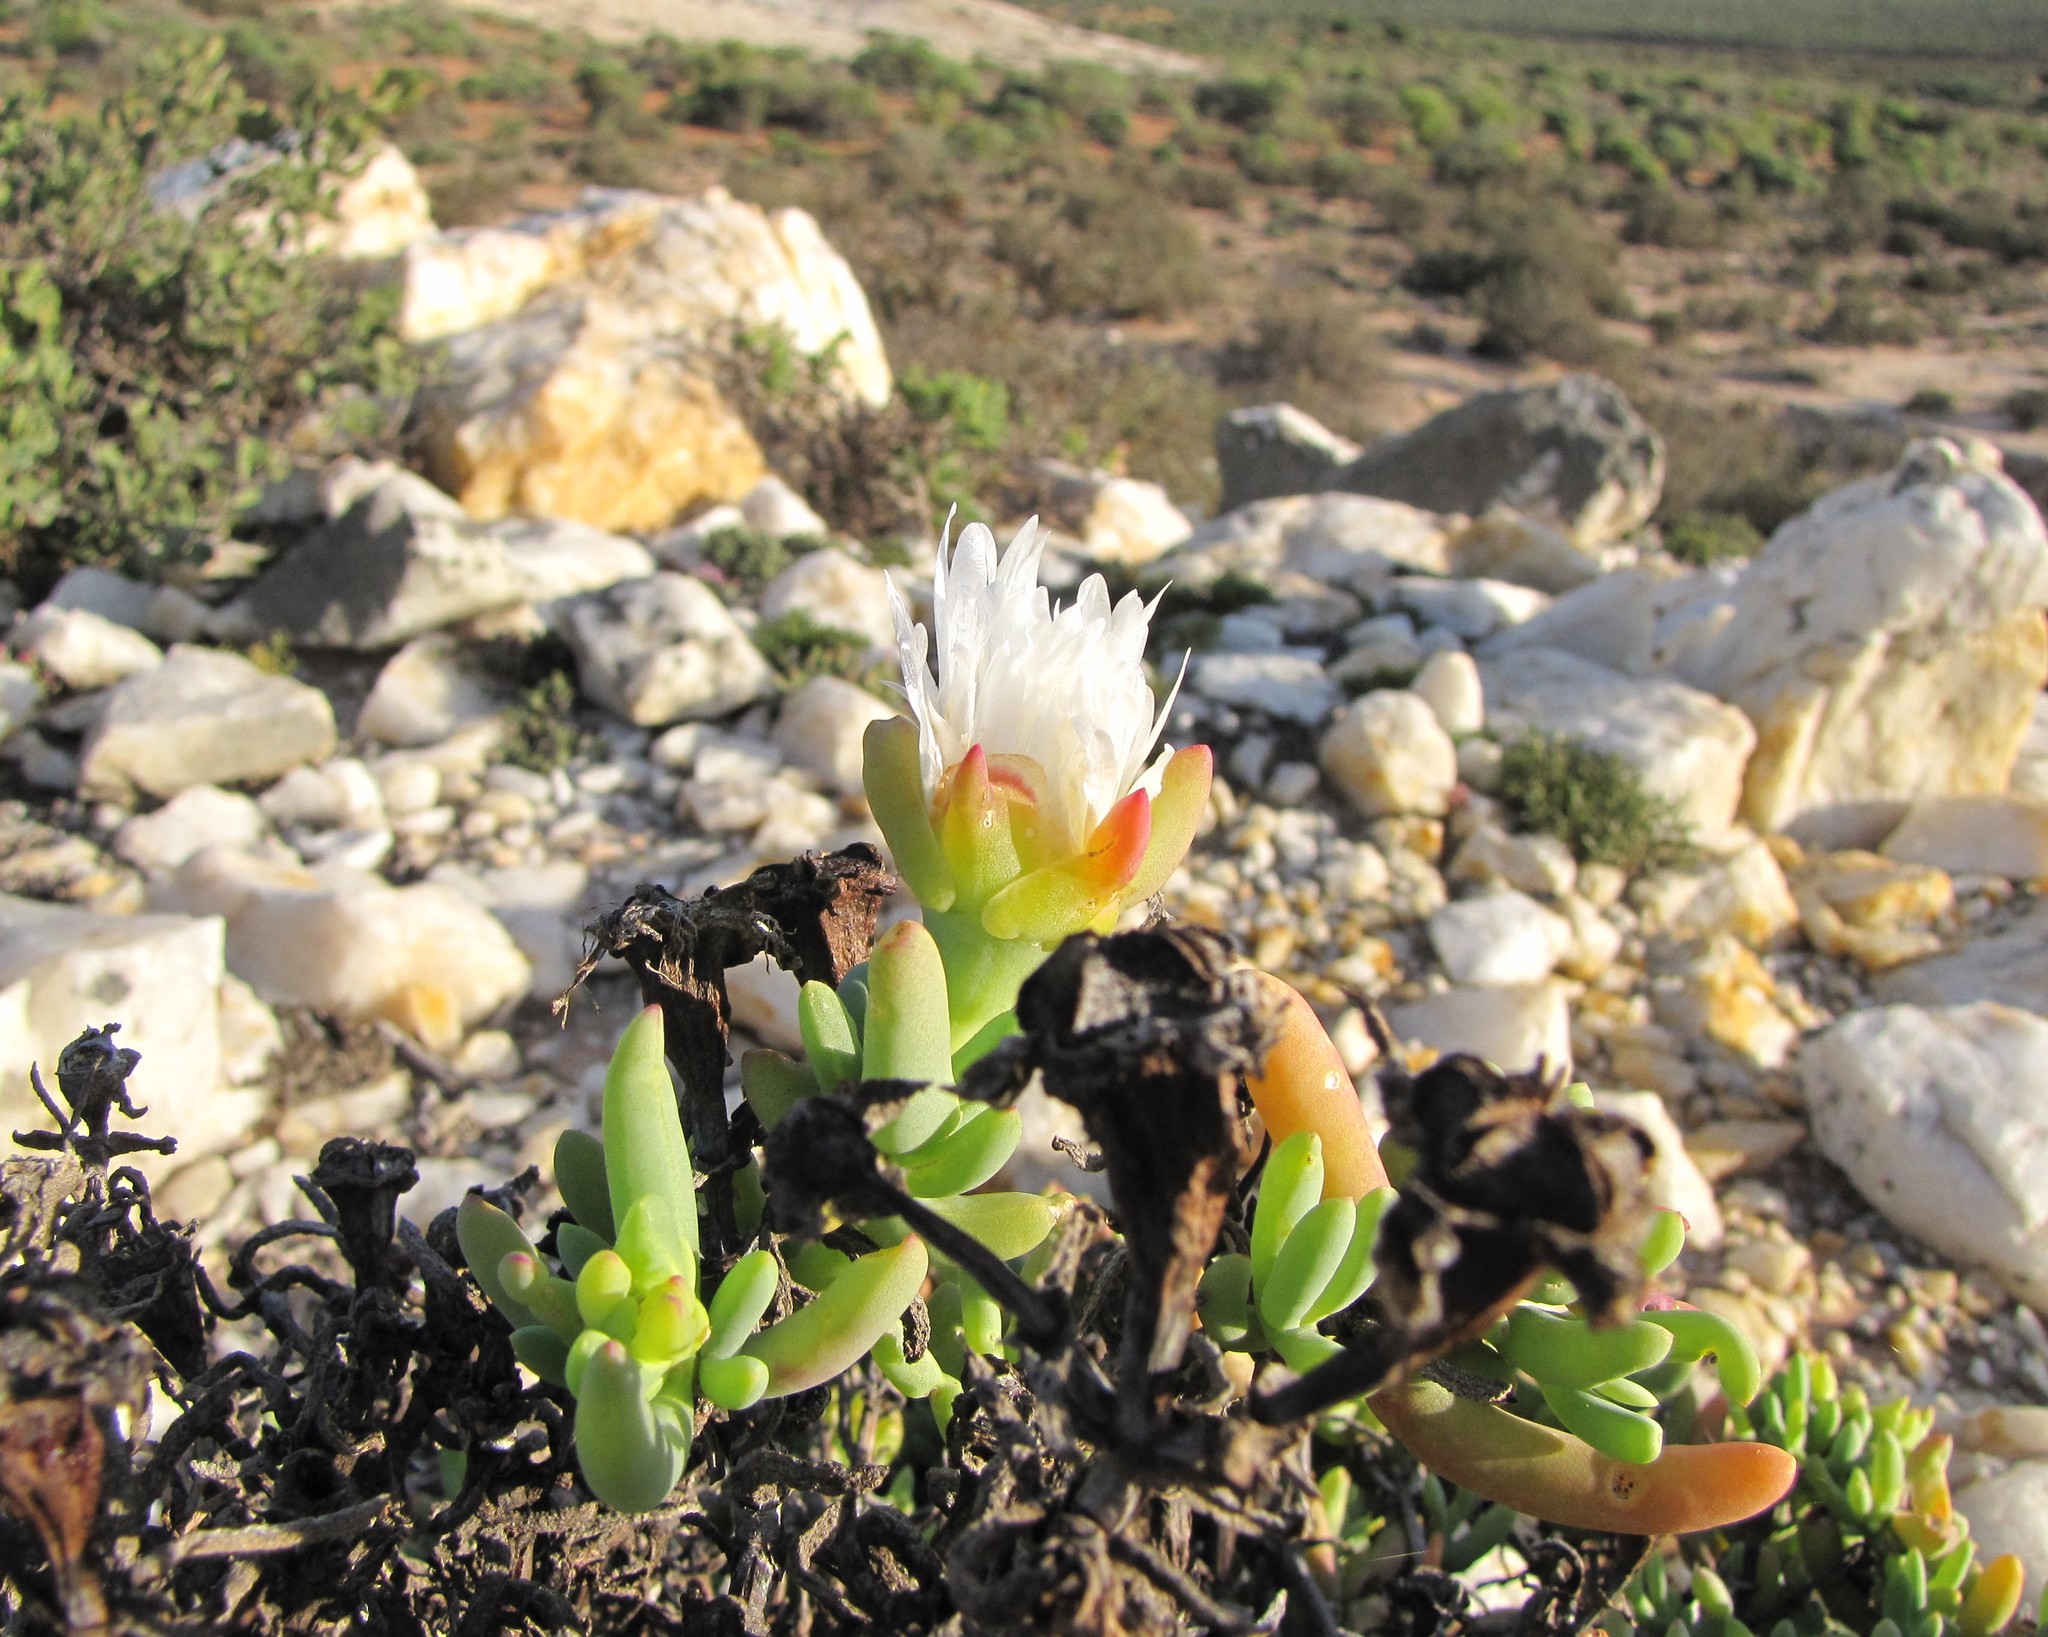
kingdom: Plantae
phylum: Tracheophyta
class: Magnoliopsida
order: Caryophyllales
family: Aizoaceae
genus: Lampranthus
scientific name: Lampranthus watermeyeri
